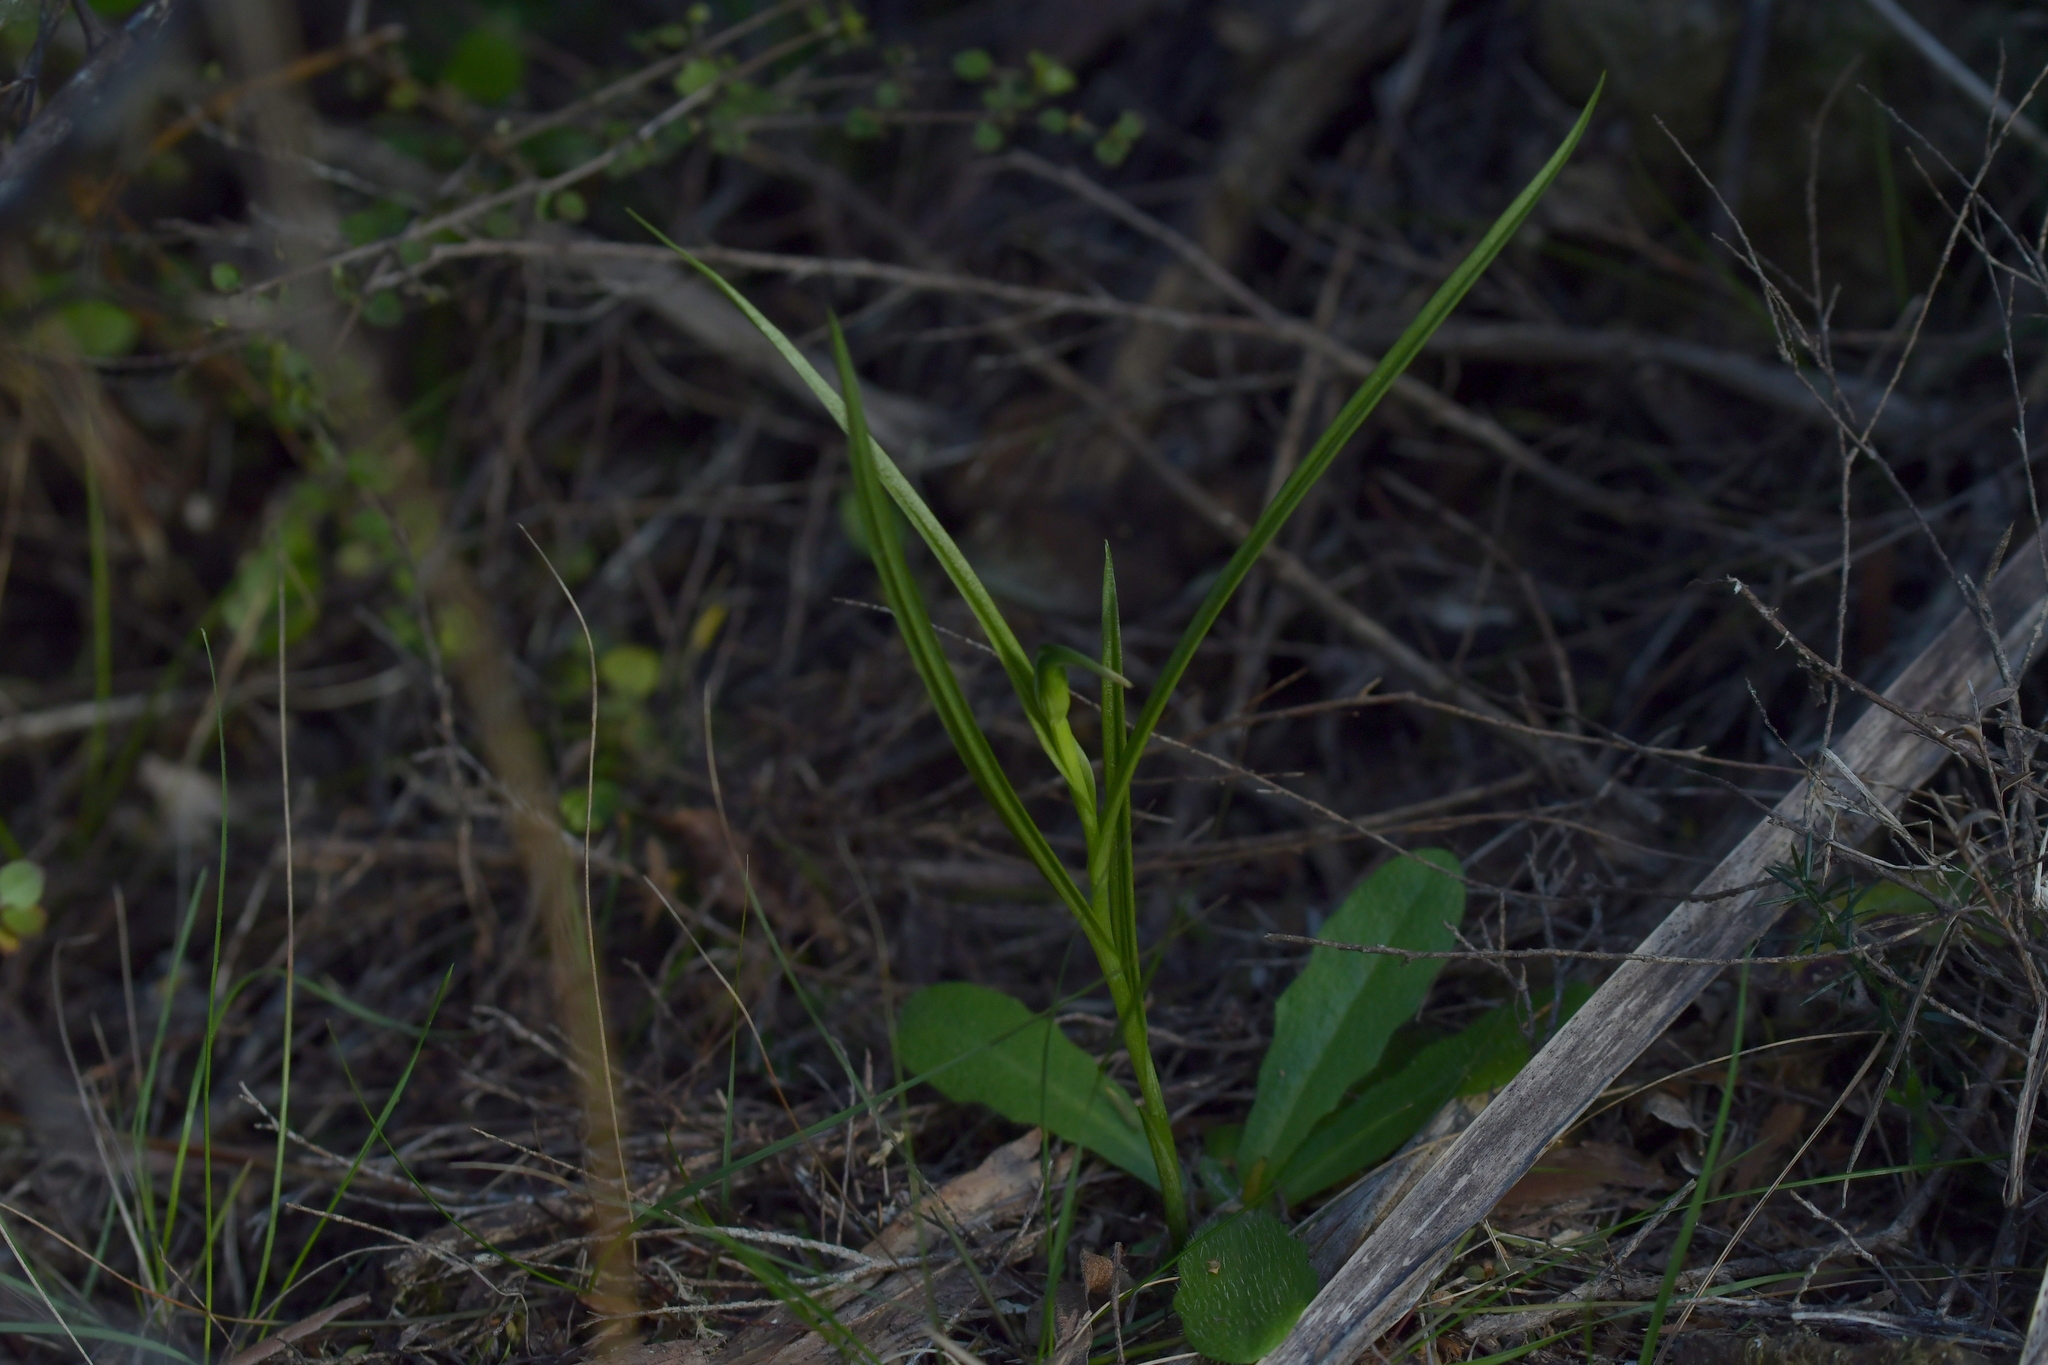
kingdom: Plantae
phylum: Tracheophyta
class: Liliopsida
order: Asparagales
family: Orchidaceae
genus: Pterostylis
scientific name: Pterostylis graminea
